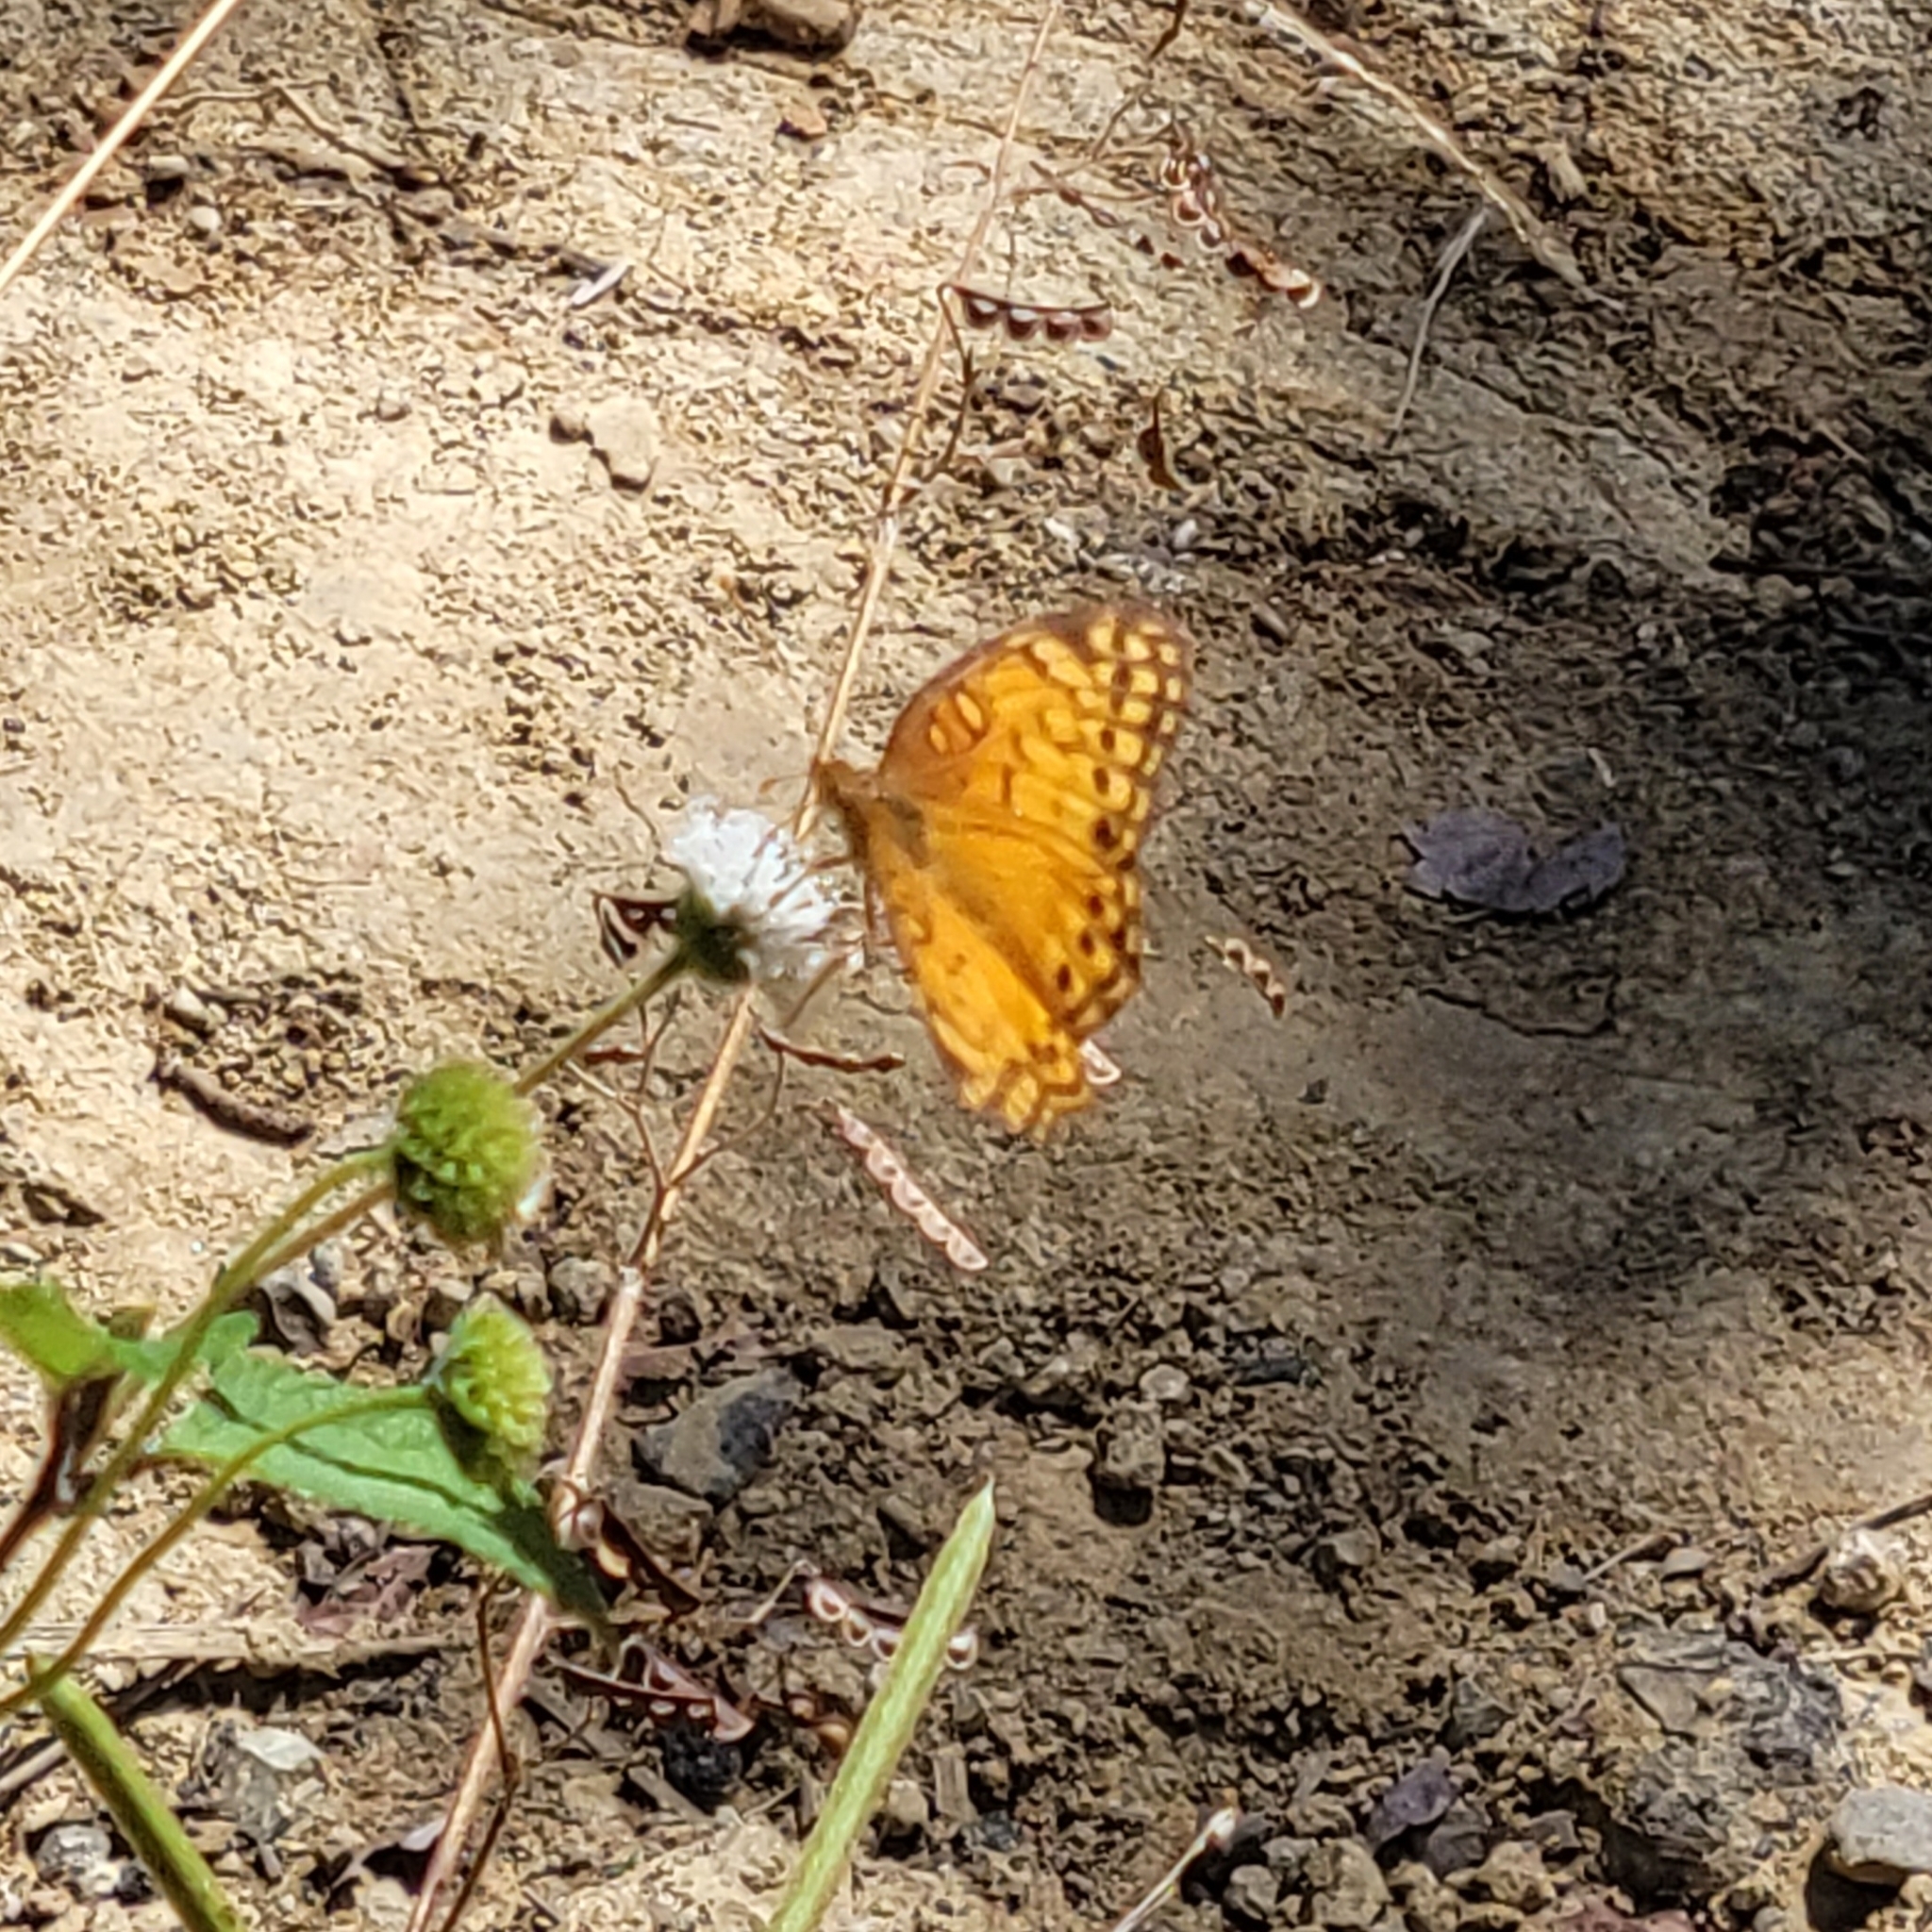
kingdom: Animalia
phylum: Arthropoda
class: Insecta
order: Lepidoptera
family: Nymphalidae
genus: Euptoieta
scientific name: Euptoieta hegesia
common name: Mexican fritillary
